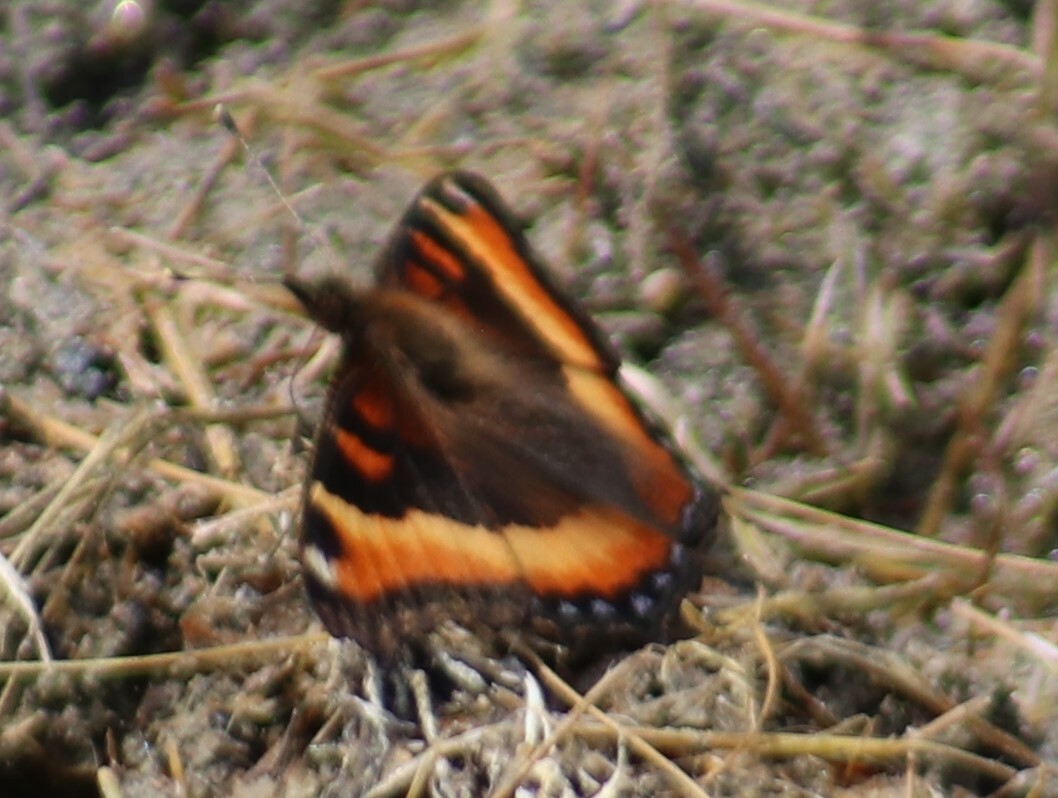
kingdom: Animalia
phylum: Arthropoda
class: Insecta
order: Lepidoptera
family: Nymphalidae
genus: Aglais
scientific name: Aglais milberti
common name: Milbert's tortoiseshell
